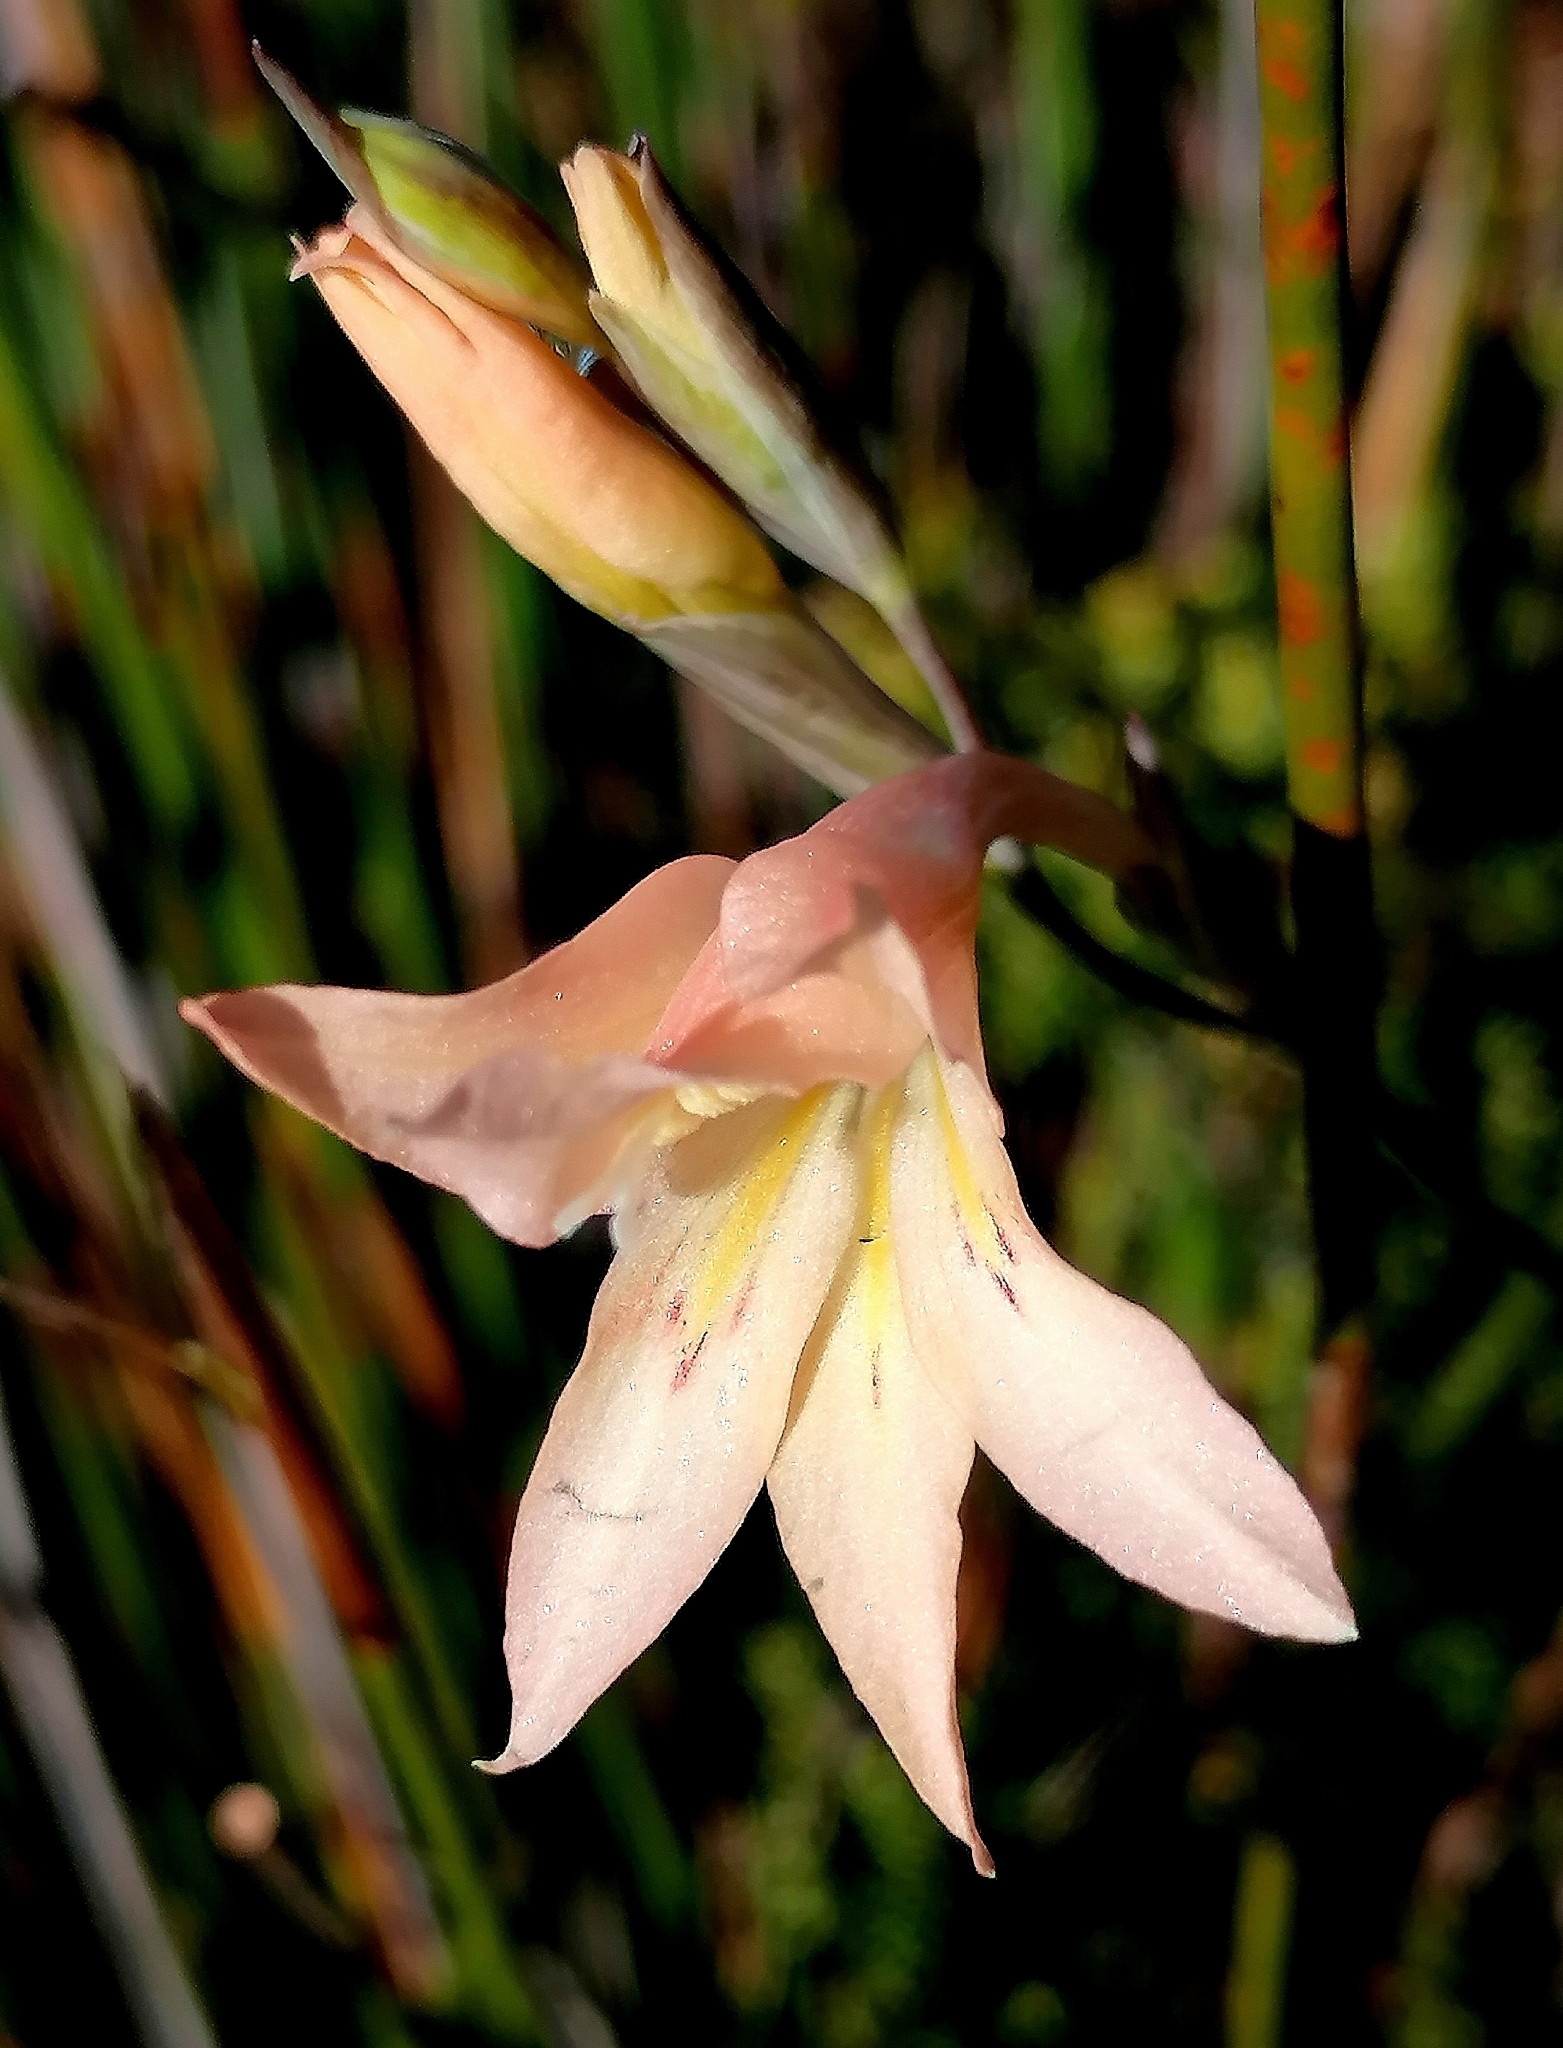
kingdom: Plantae
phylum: Tracheophyta
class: Liliopsida
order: Asparagales
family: Iridaceae
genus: Gladiolus
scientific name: Gladiolus monticola
